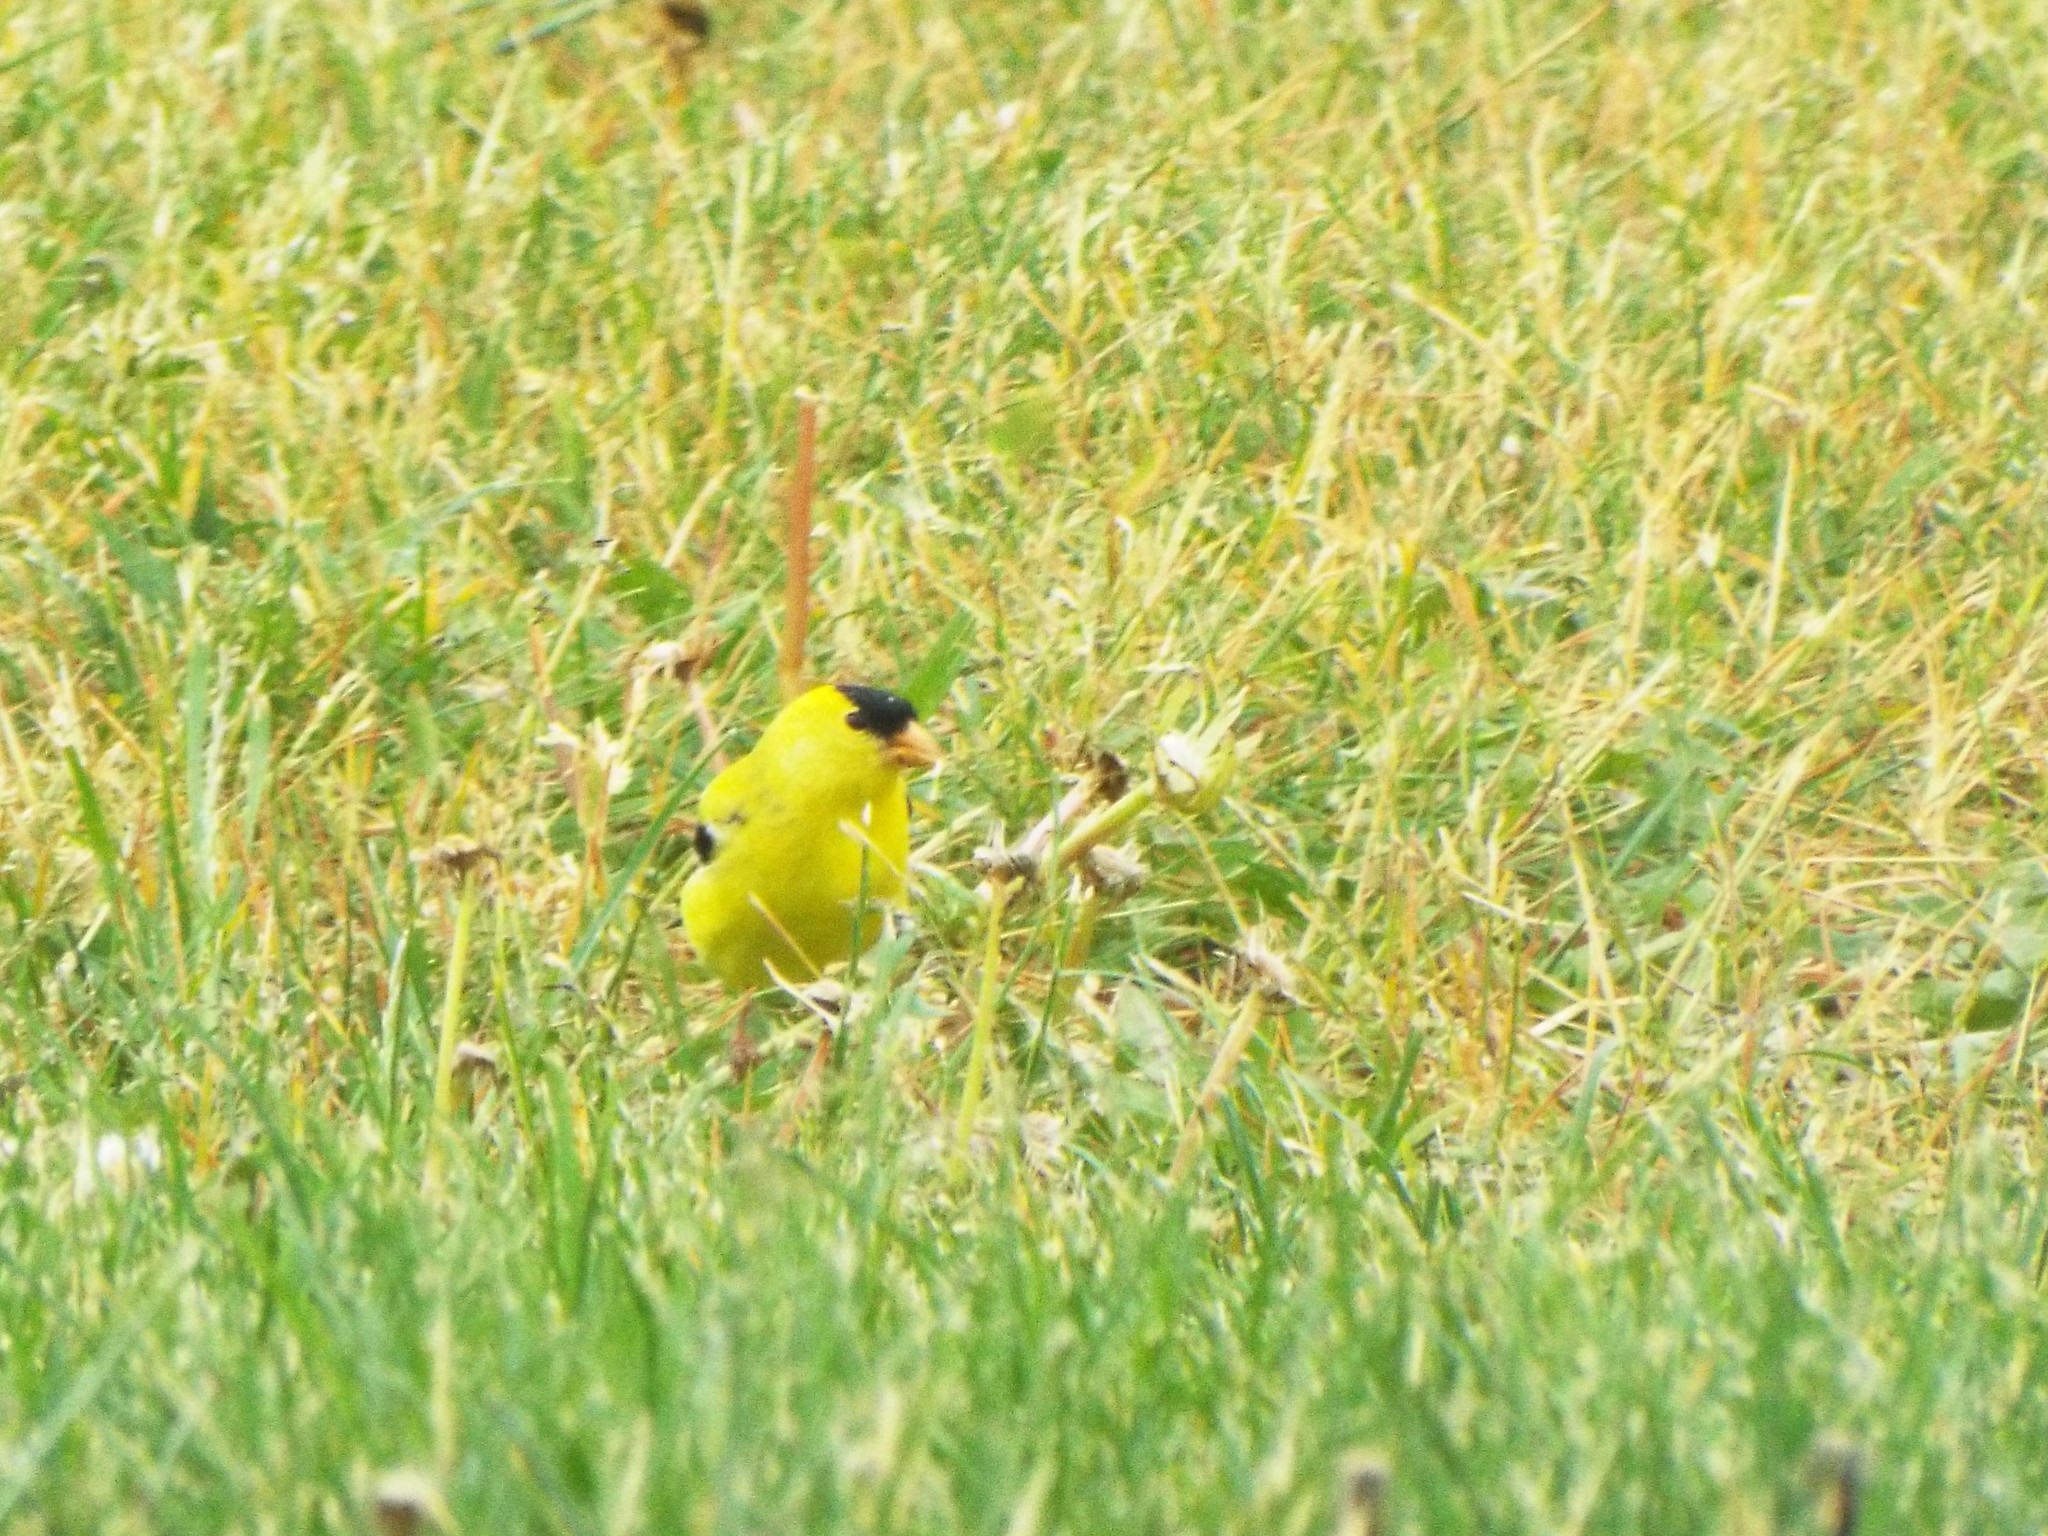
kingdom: Animalia
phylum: Chordata
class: Aves
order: Passeriformes
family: Fringillidae
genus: Spinus
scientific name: Spinus tristis
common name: American goldfinch
